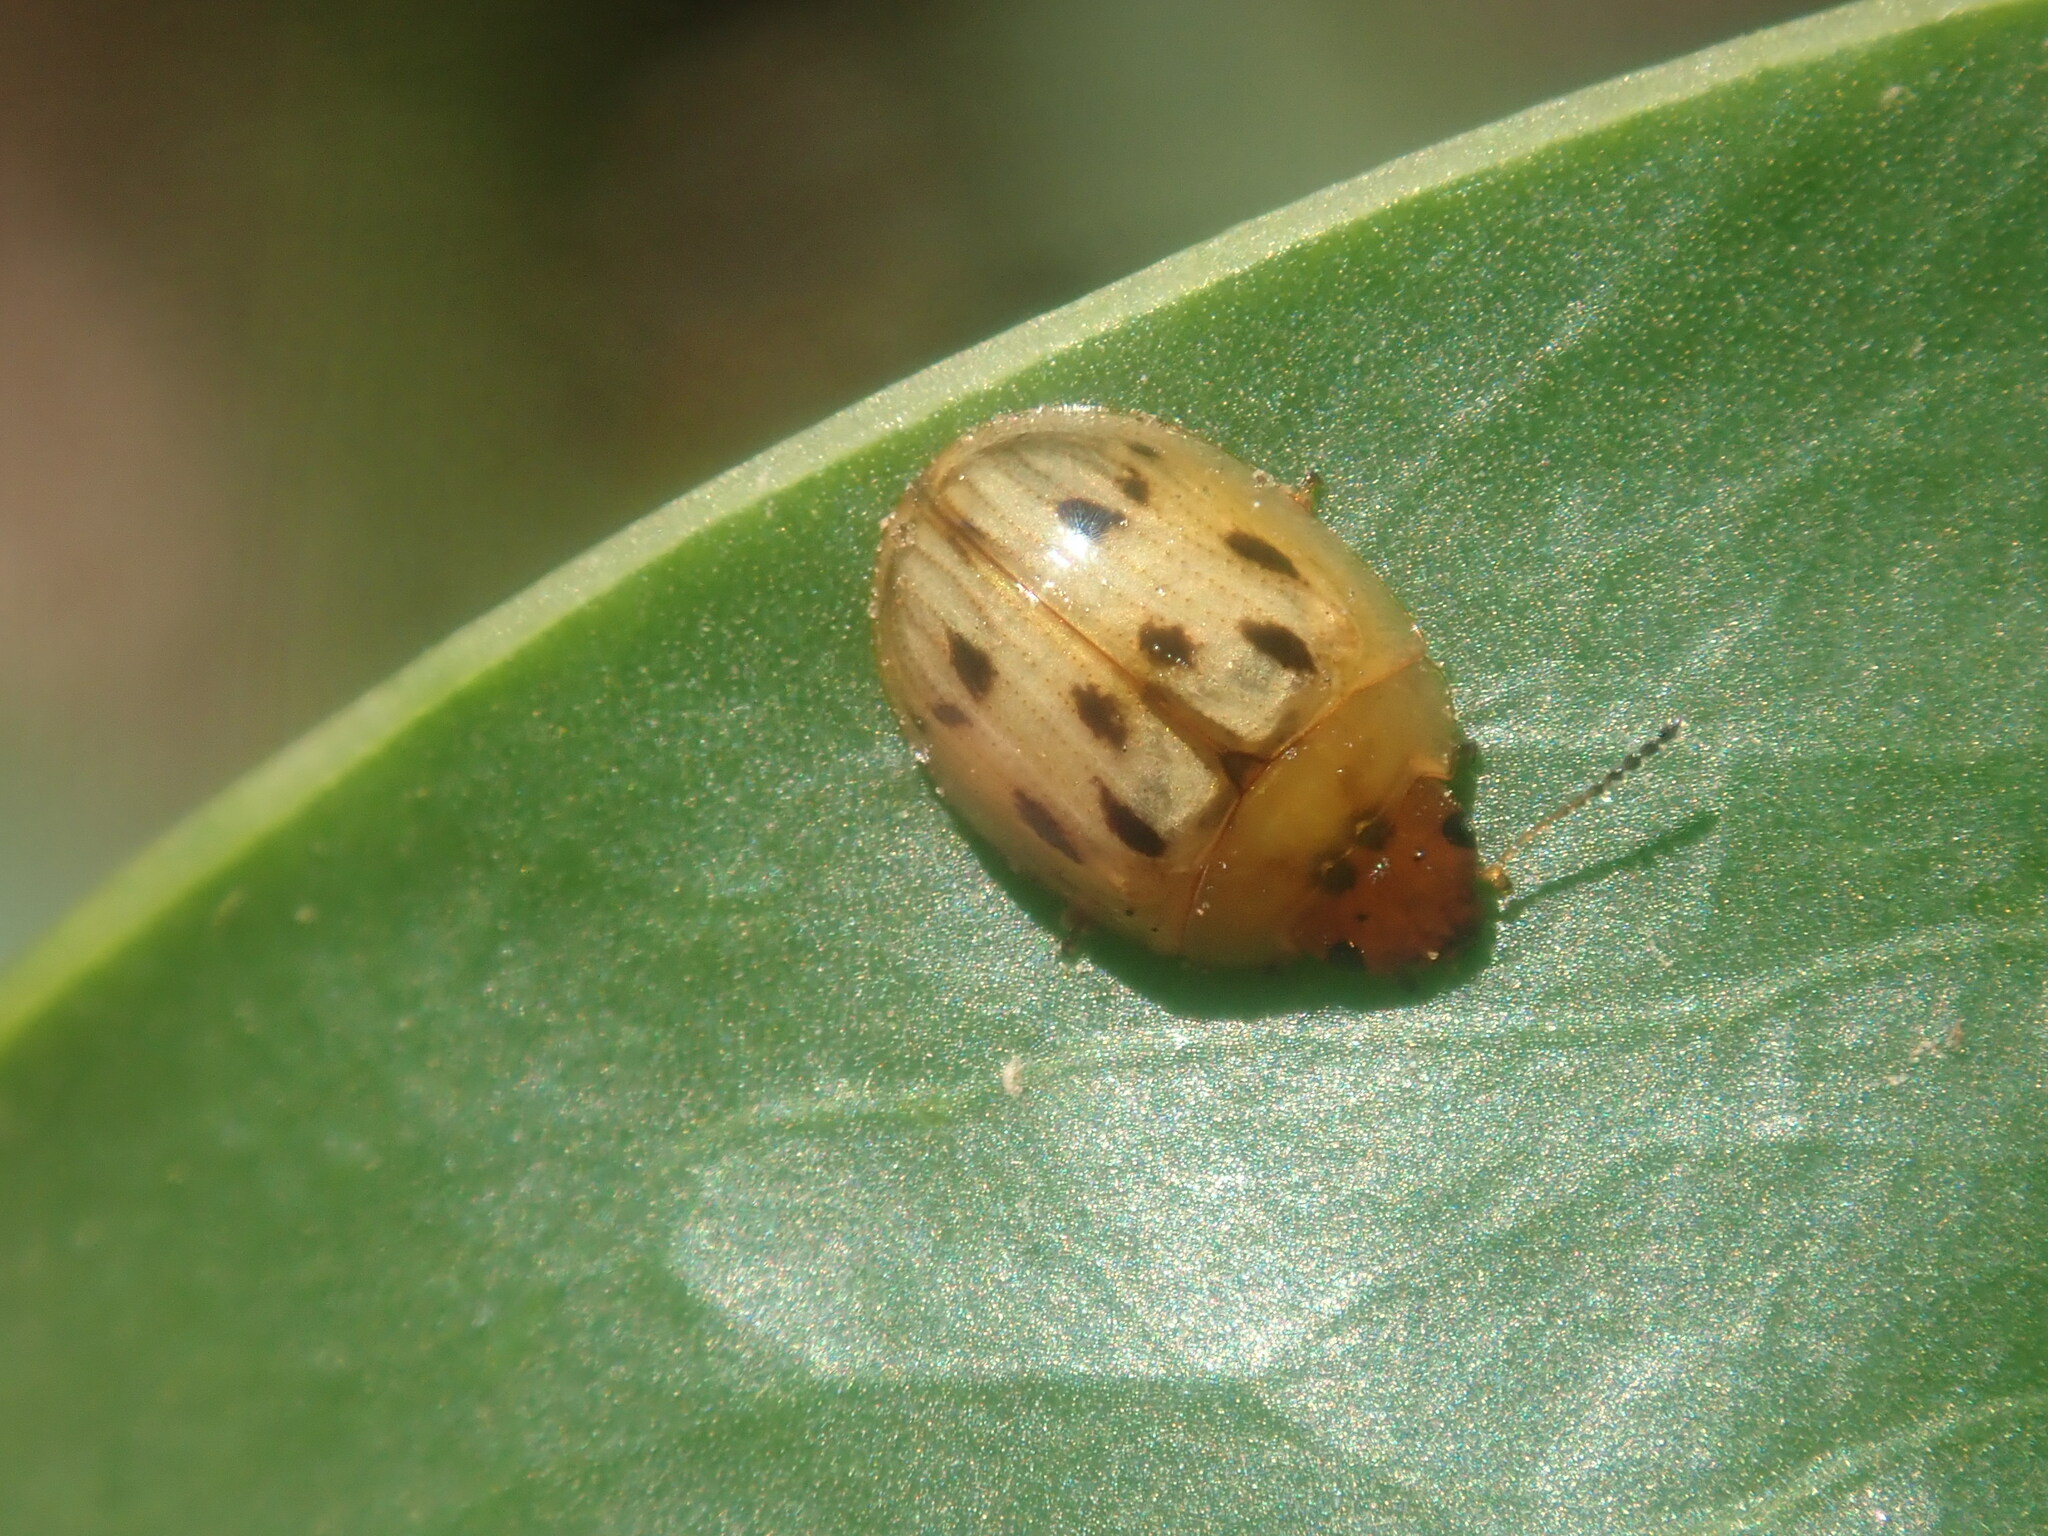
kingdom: Animalia
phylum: Arthropoda
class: Insecta
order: Coleoptera
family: Chrysomelidae
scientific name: Chrysomelidae
